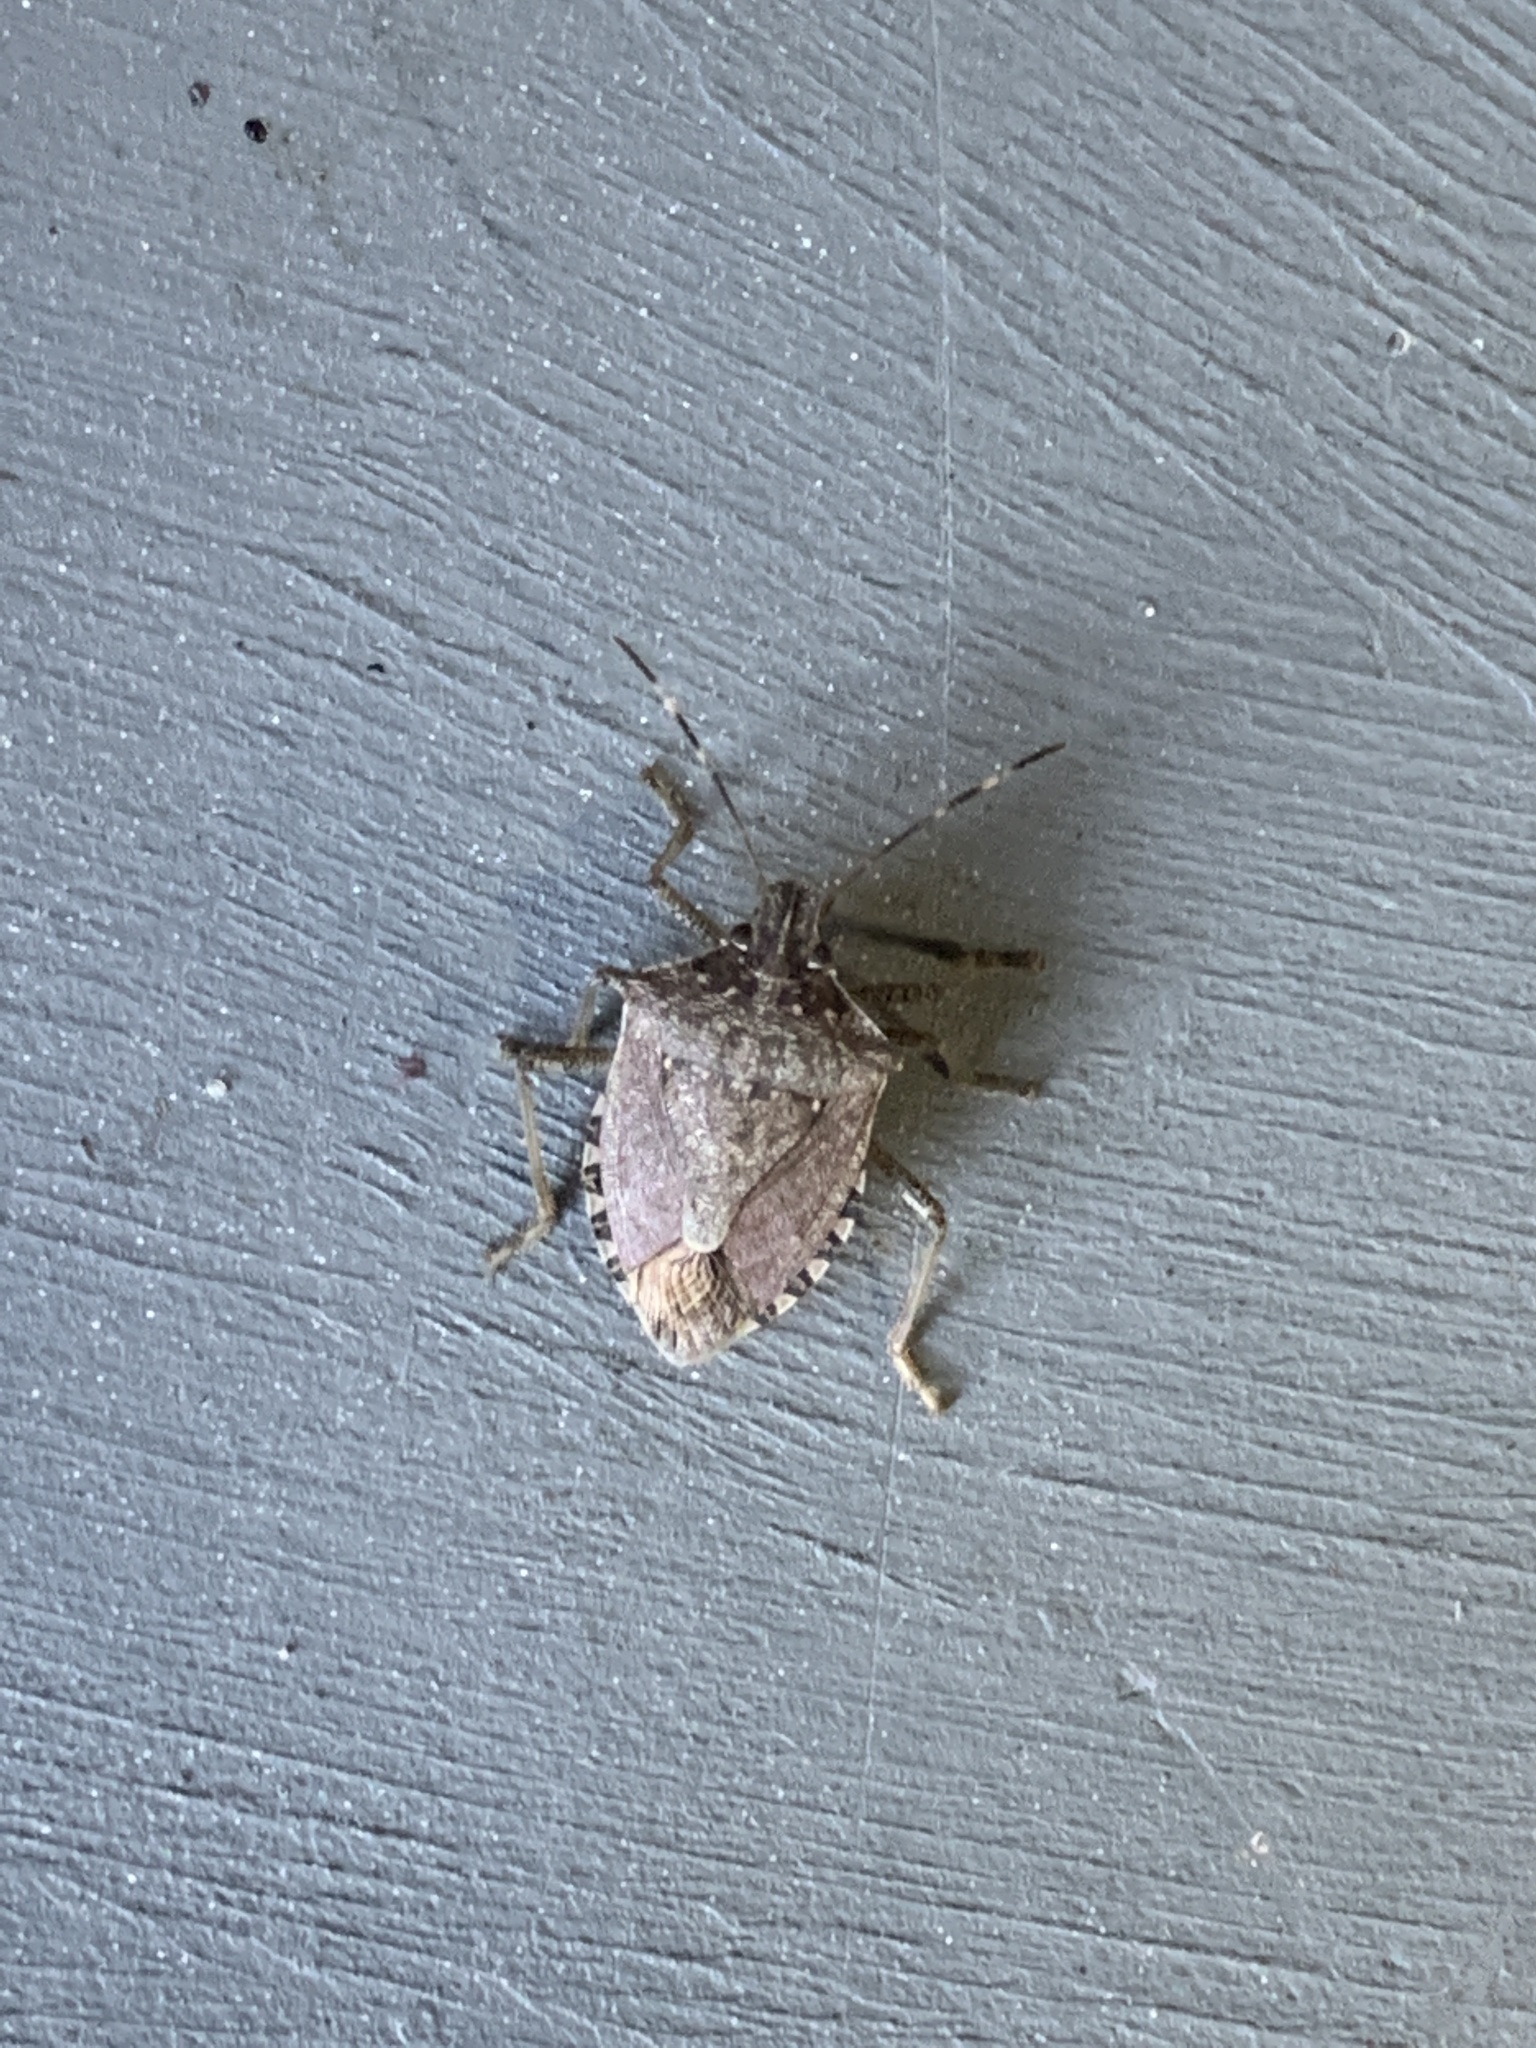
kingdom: Animalia
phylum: Arthropoda
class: Insecta
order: Hemiptera
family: Pentatomidae
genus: Halyomorpha
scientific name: Halyomorpha halys
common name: Brown marmorated stink bug
